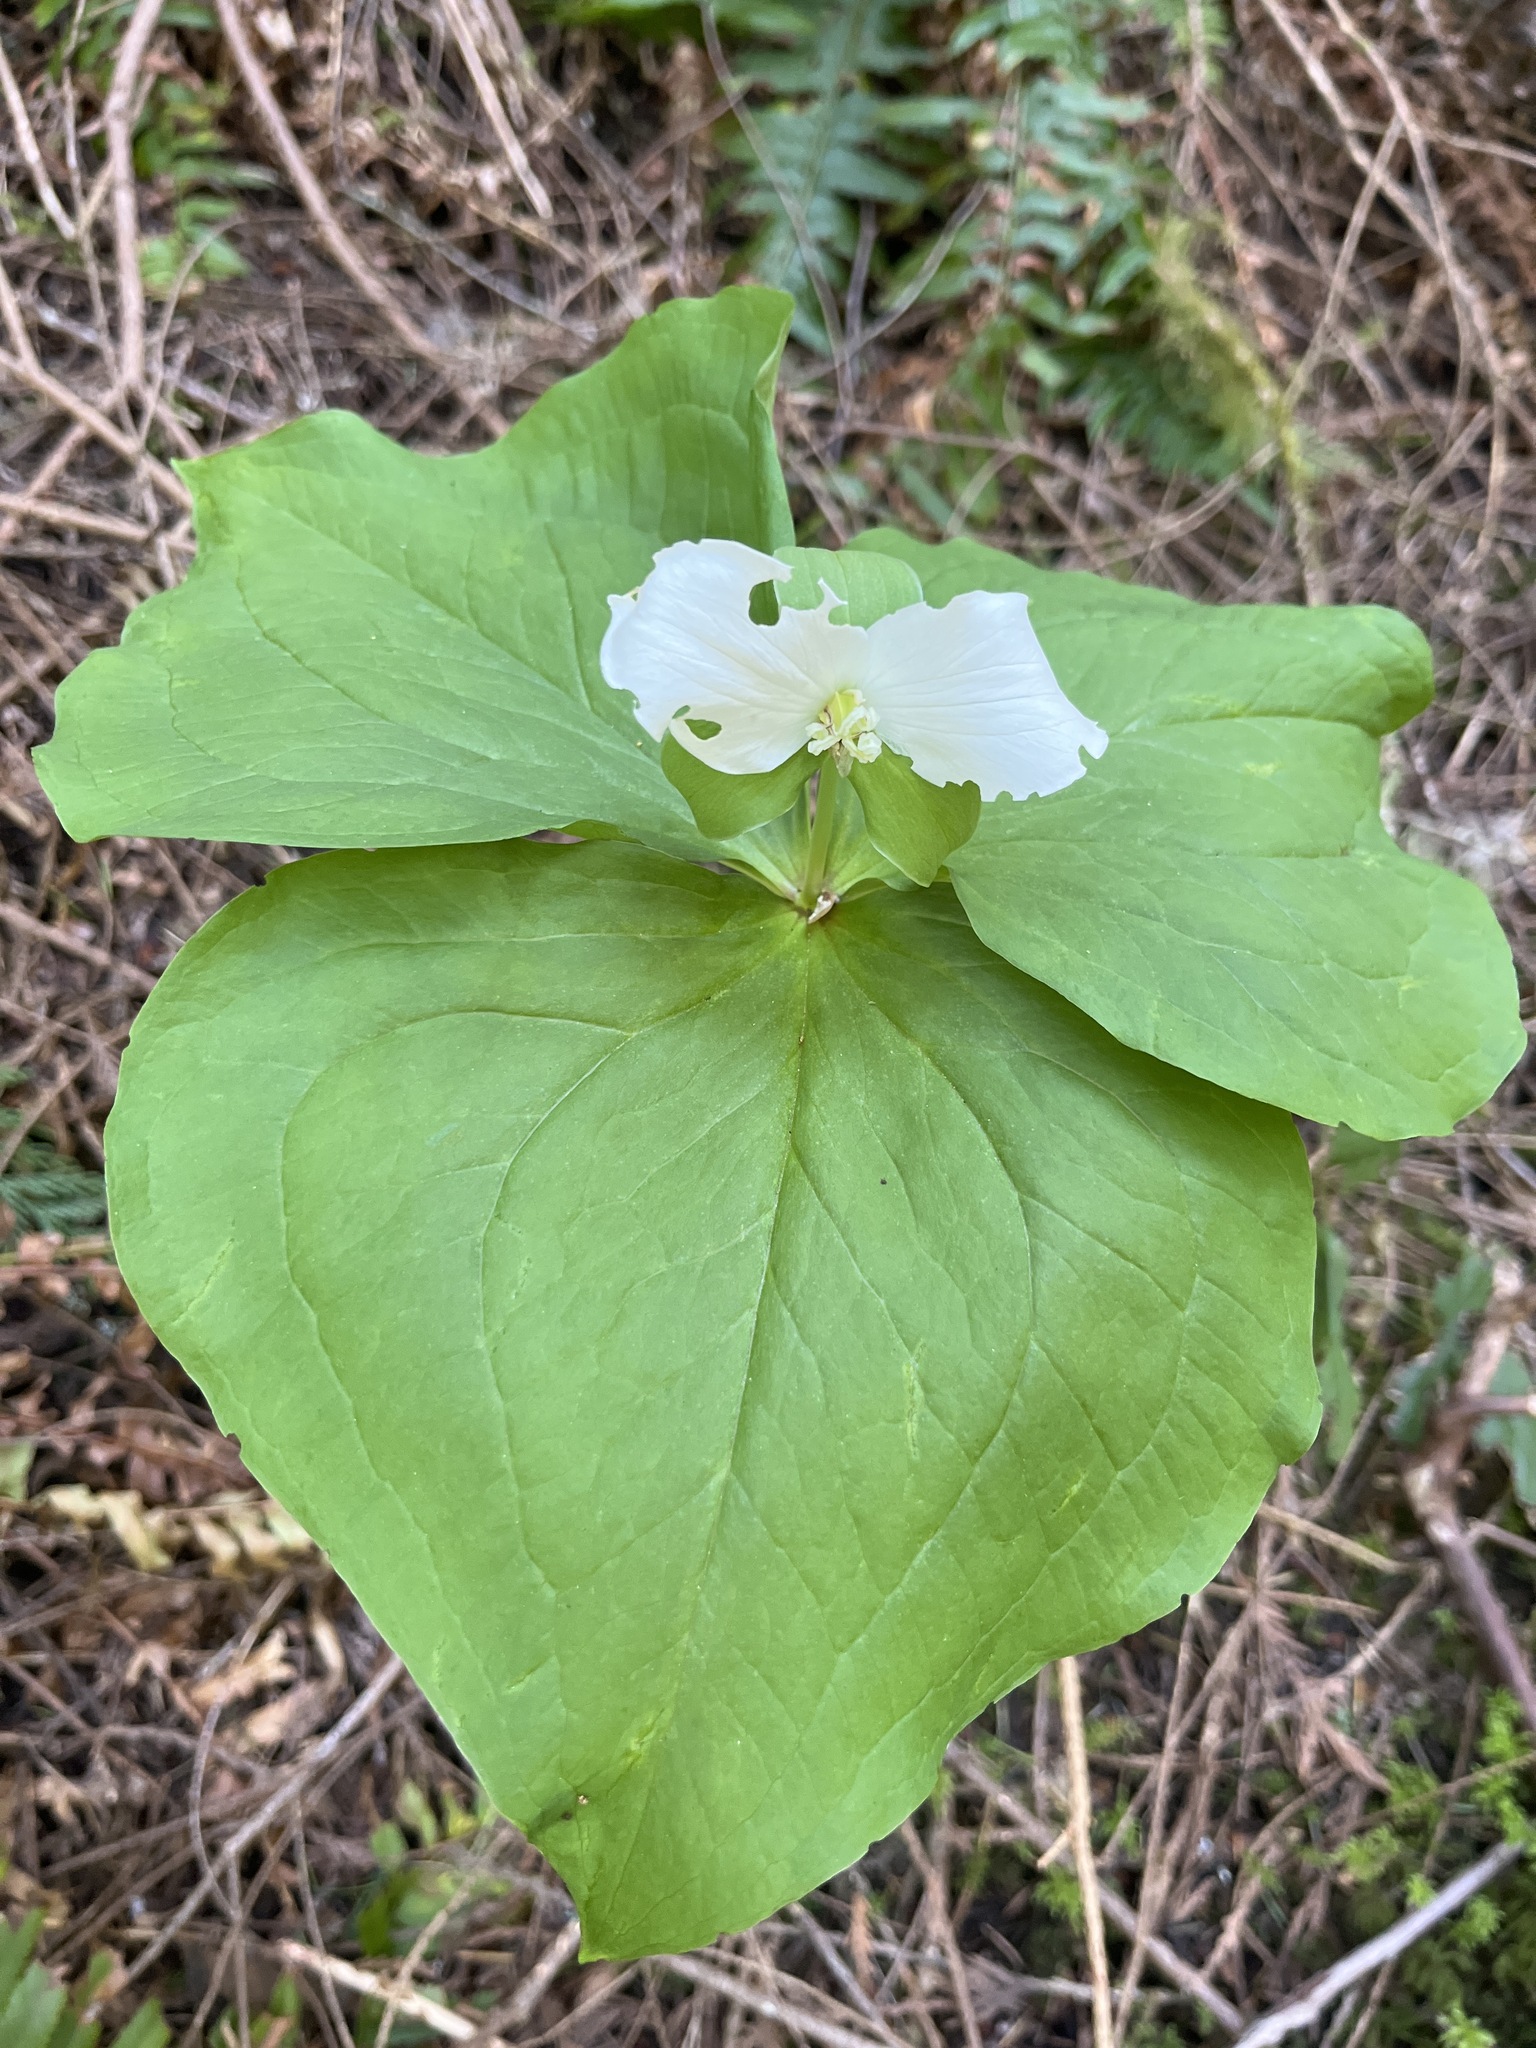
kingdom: Plantae
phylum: Tracheophyta
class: Liliopsida
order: Liliales
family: Melanthiaceae
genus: Trillium
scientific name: Trillium ovatum
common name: Pacific trillium
